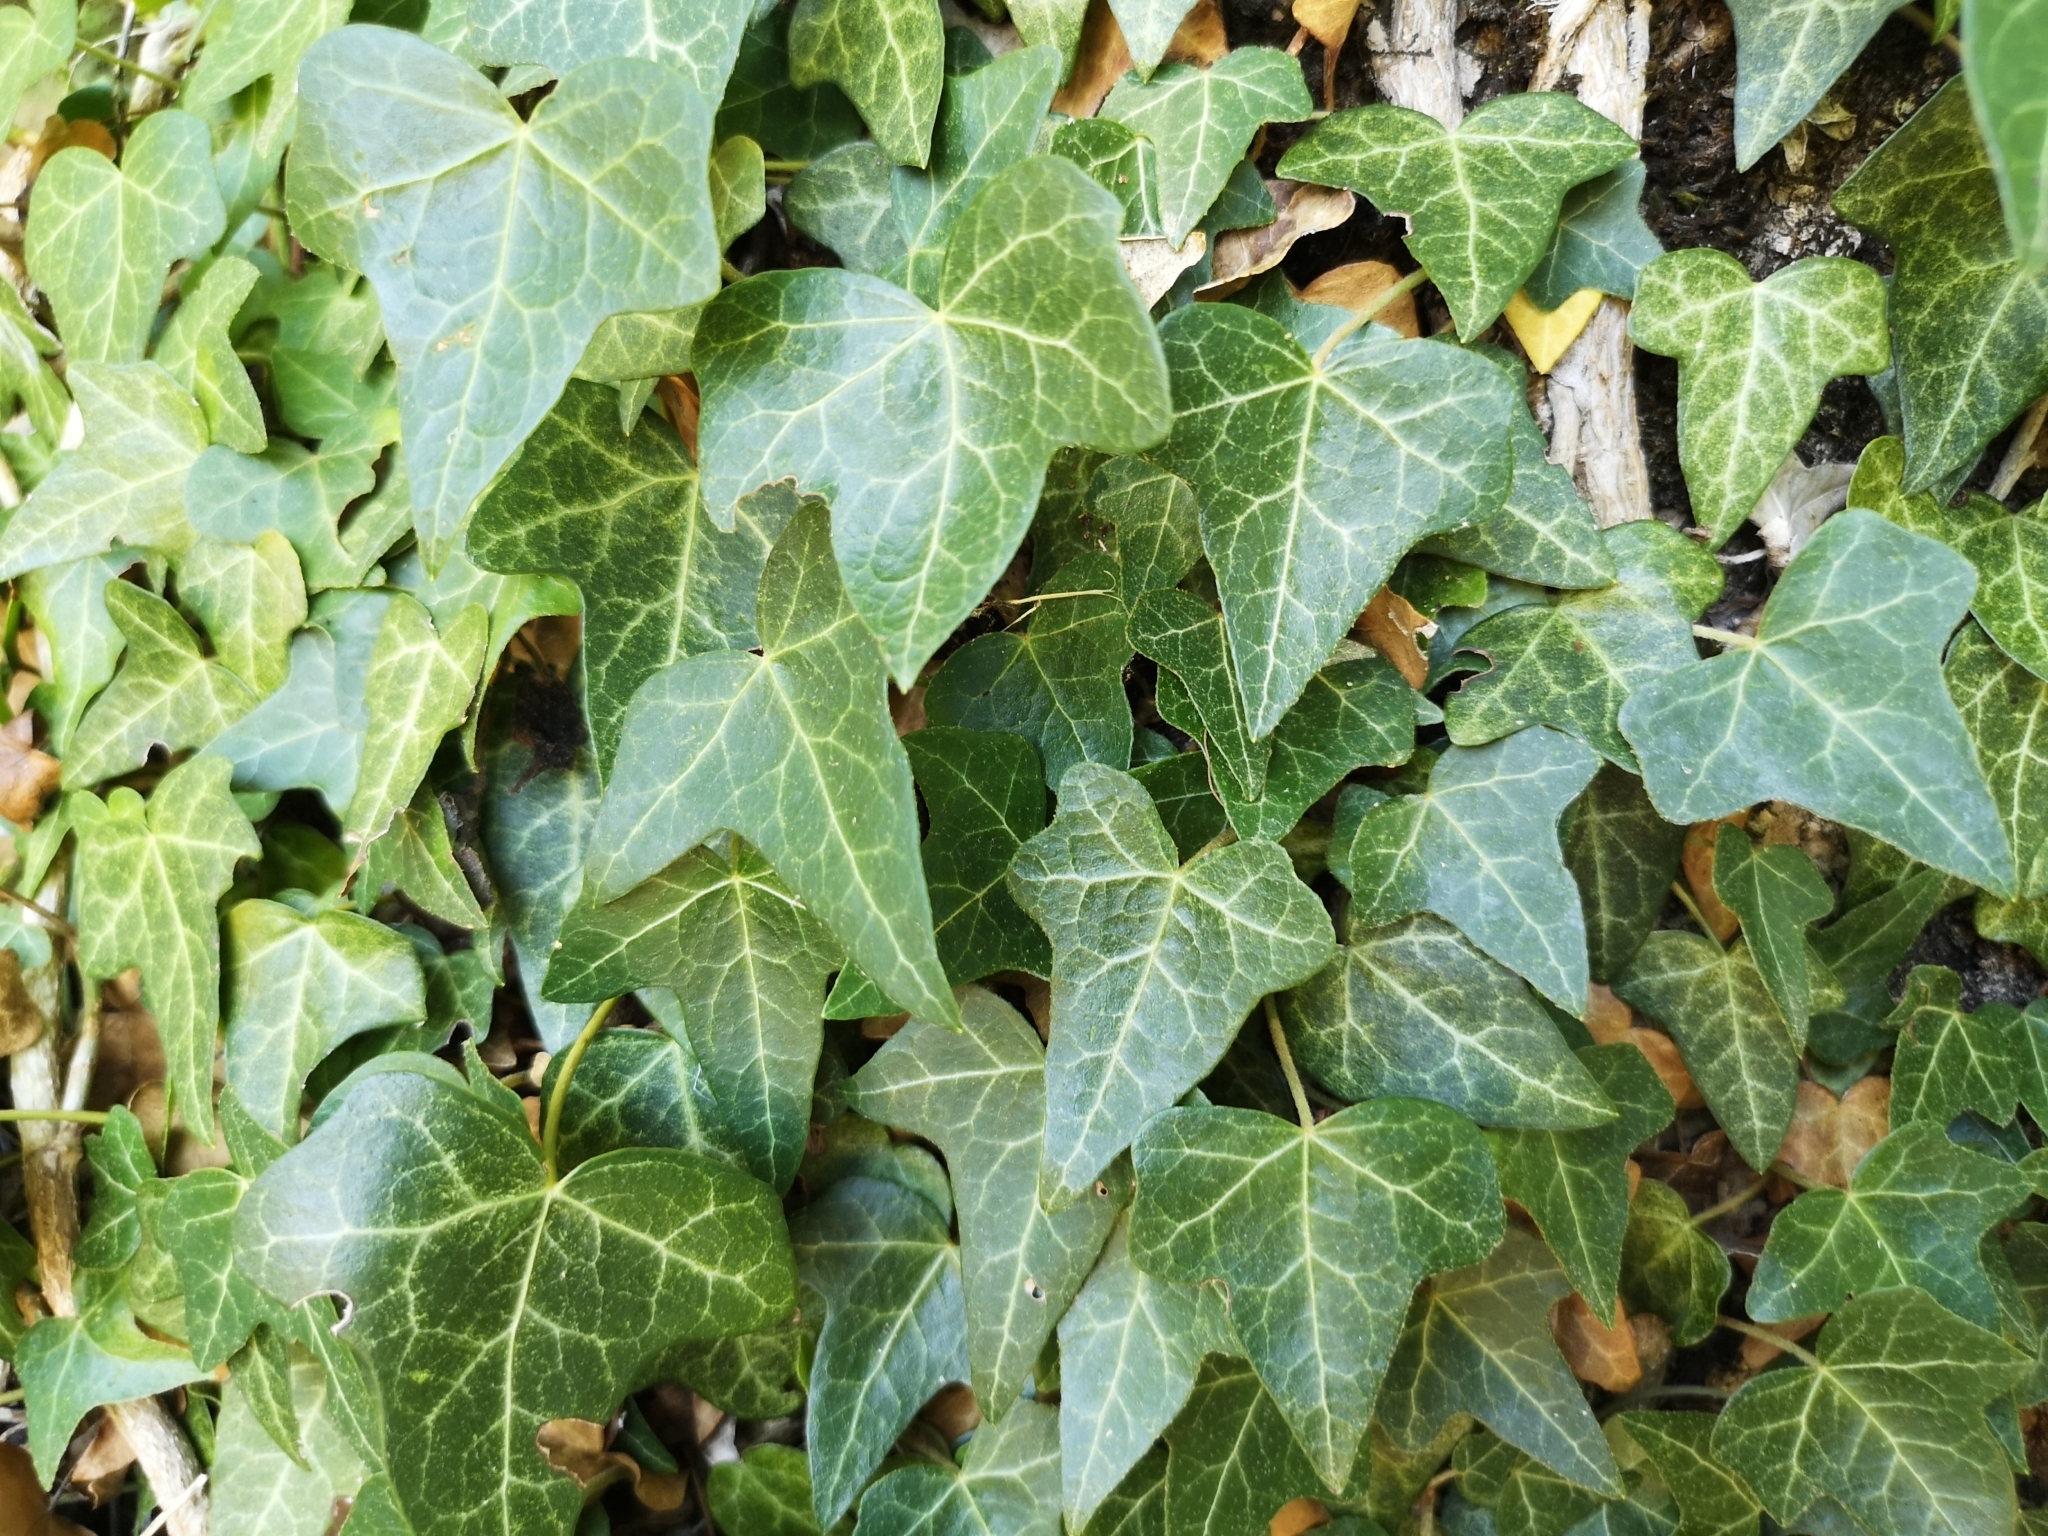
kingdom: Plantae
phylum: Tracheophyta
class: Magnoliopsida
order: Apiales
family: Araliaceae
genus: Hedera
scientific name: Hedera helix
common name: Ivy
